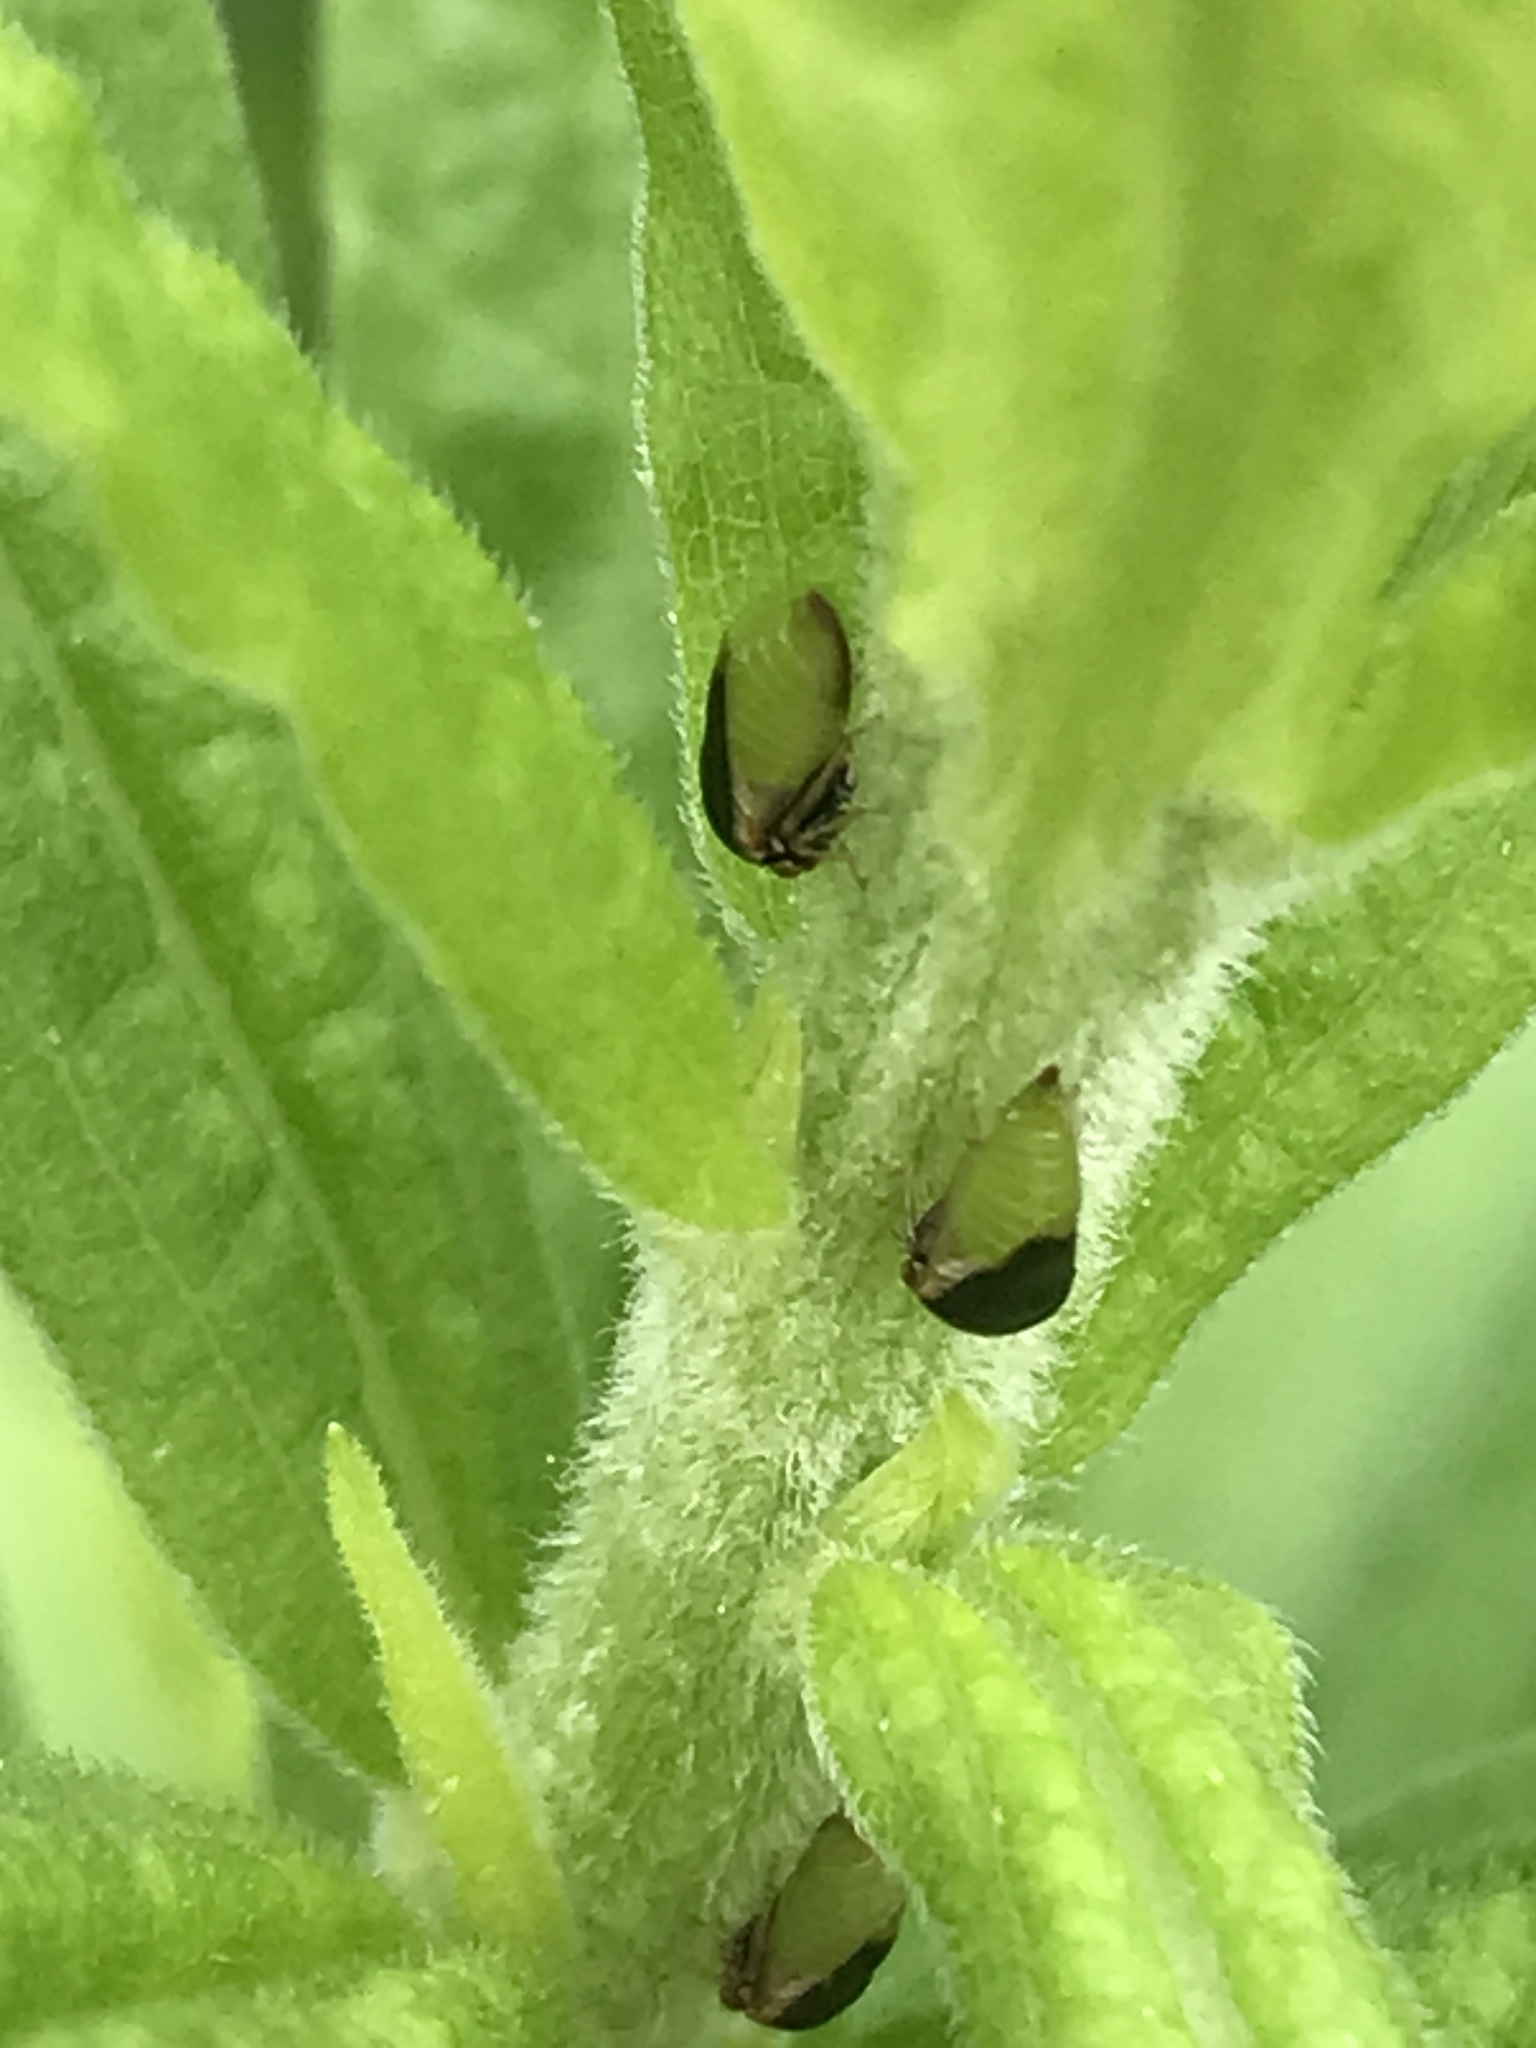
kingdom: Animalia
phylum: Arthropoda
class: Insecta
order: Hemiptera
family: Membracidae
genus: Micrutalis
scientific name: Micrutalis calva
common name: Honeylocust treehopper
